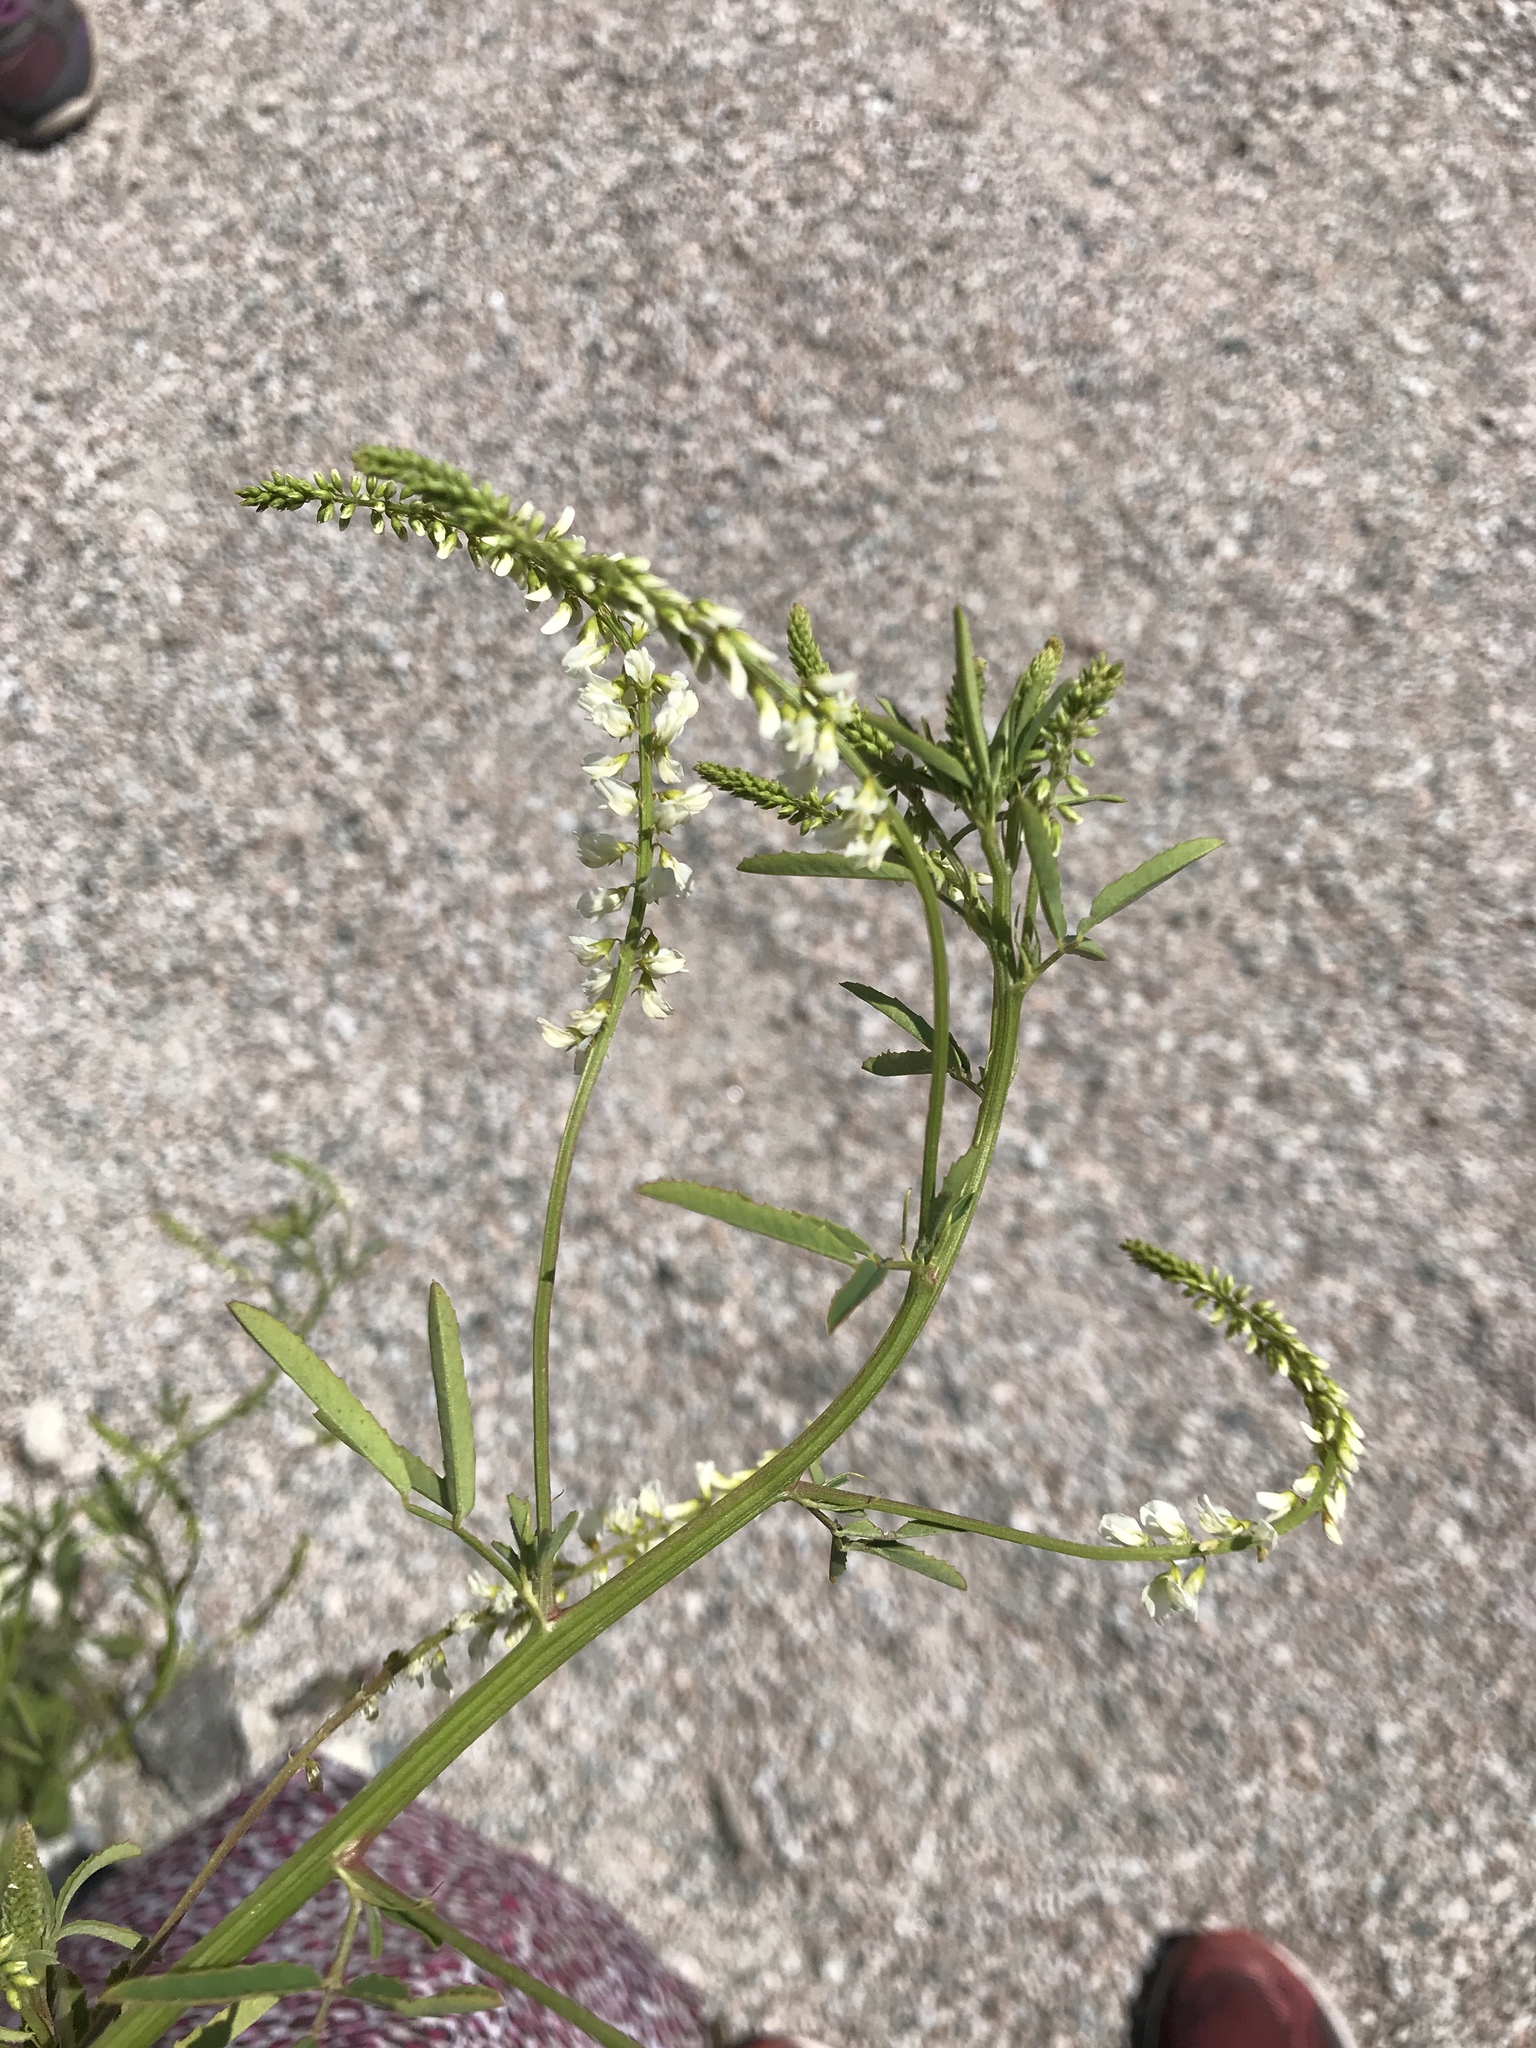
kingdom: Plantae
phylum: Tracheophyta
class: Magnoliopsida
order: Fabales
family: Fabaceae
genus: Melilotus
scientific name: Melilotus albus
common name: White melilot
